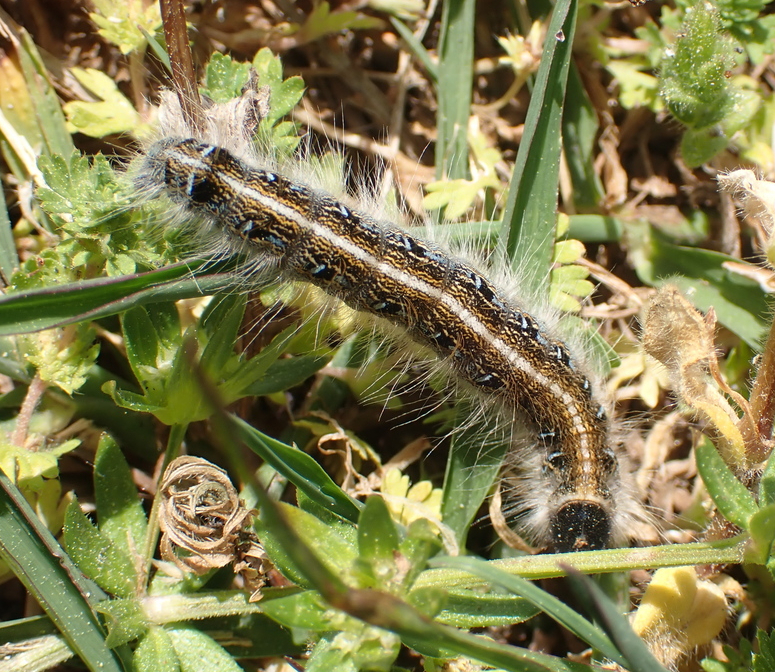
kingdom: Animalia
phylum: Arthropoda
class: Insecta
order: Lepidoptera
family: Lasiocampidae
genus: Malacosoma
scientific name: Malacosoma americana
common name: Eastern tent caterpillar moth
